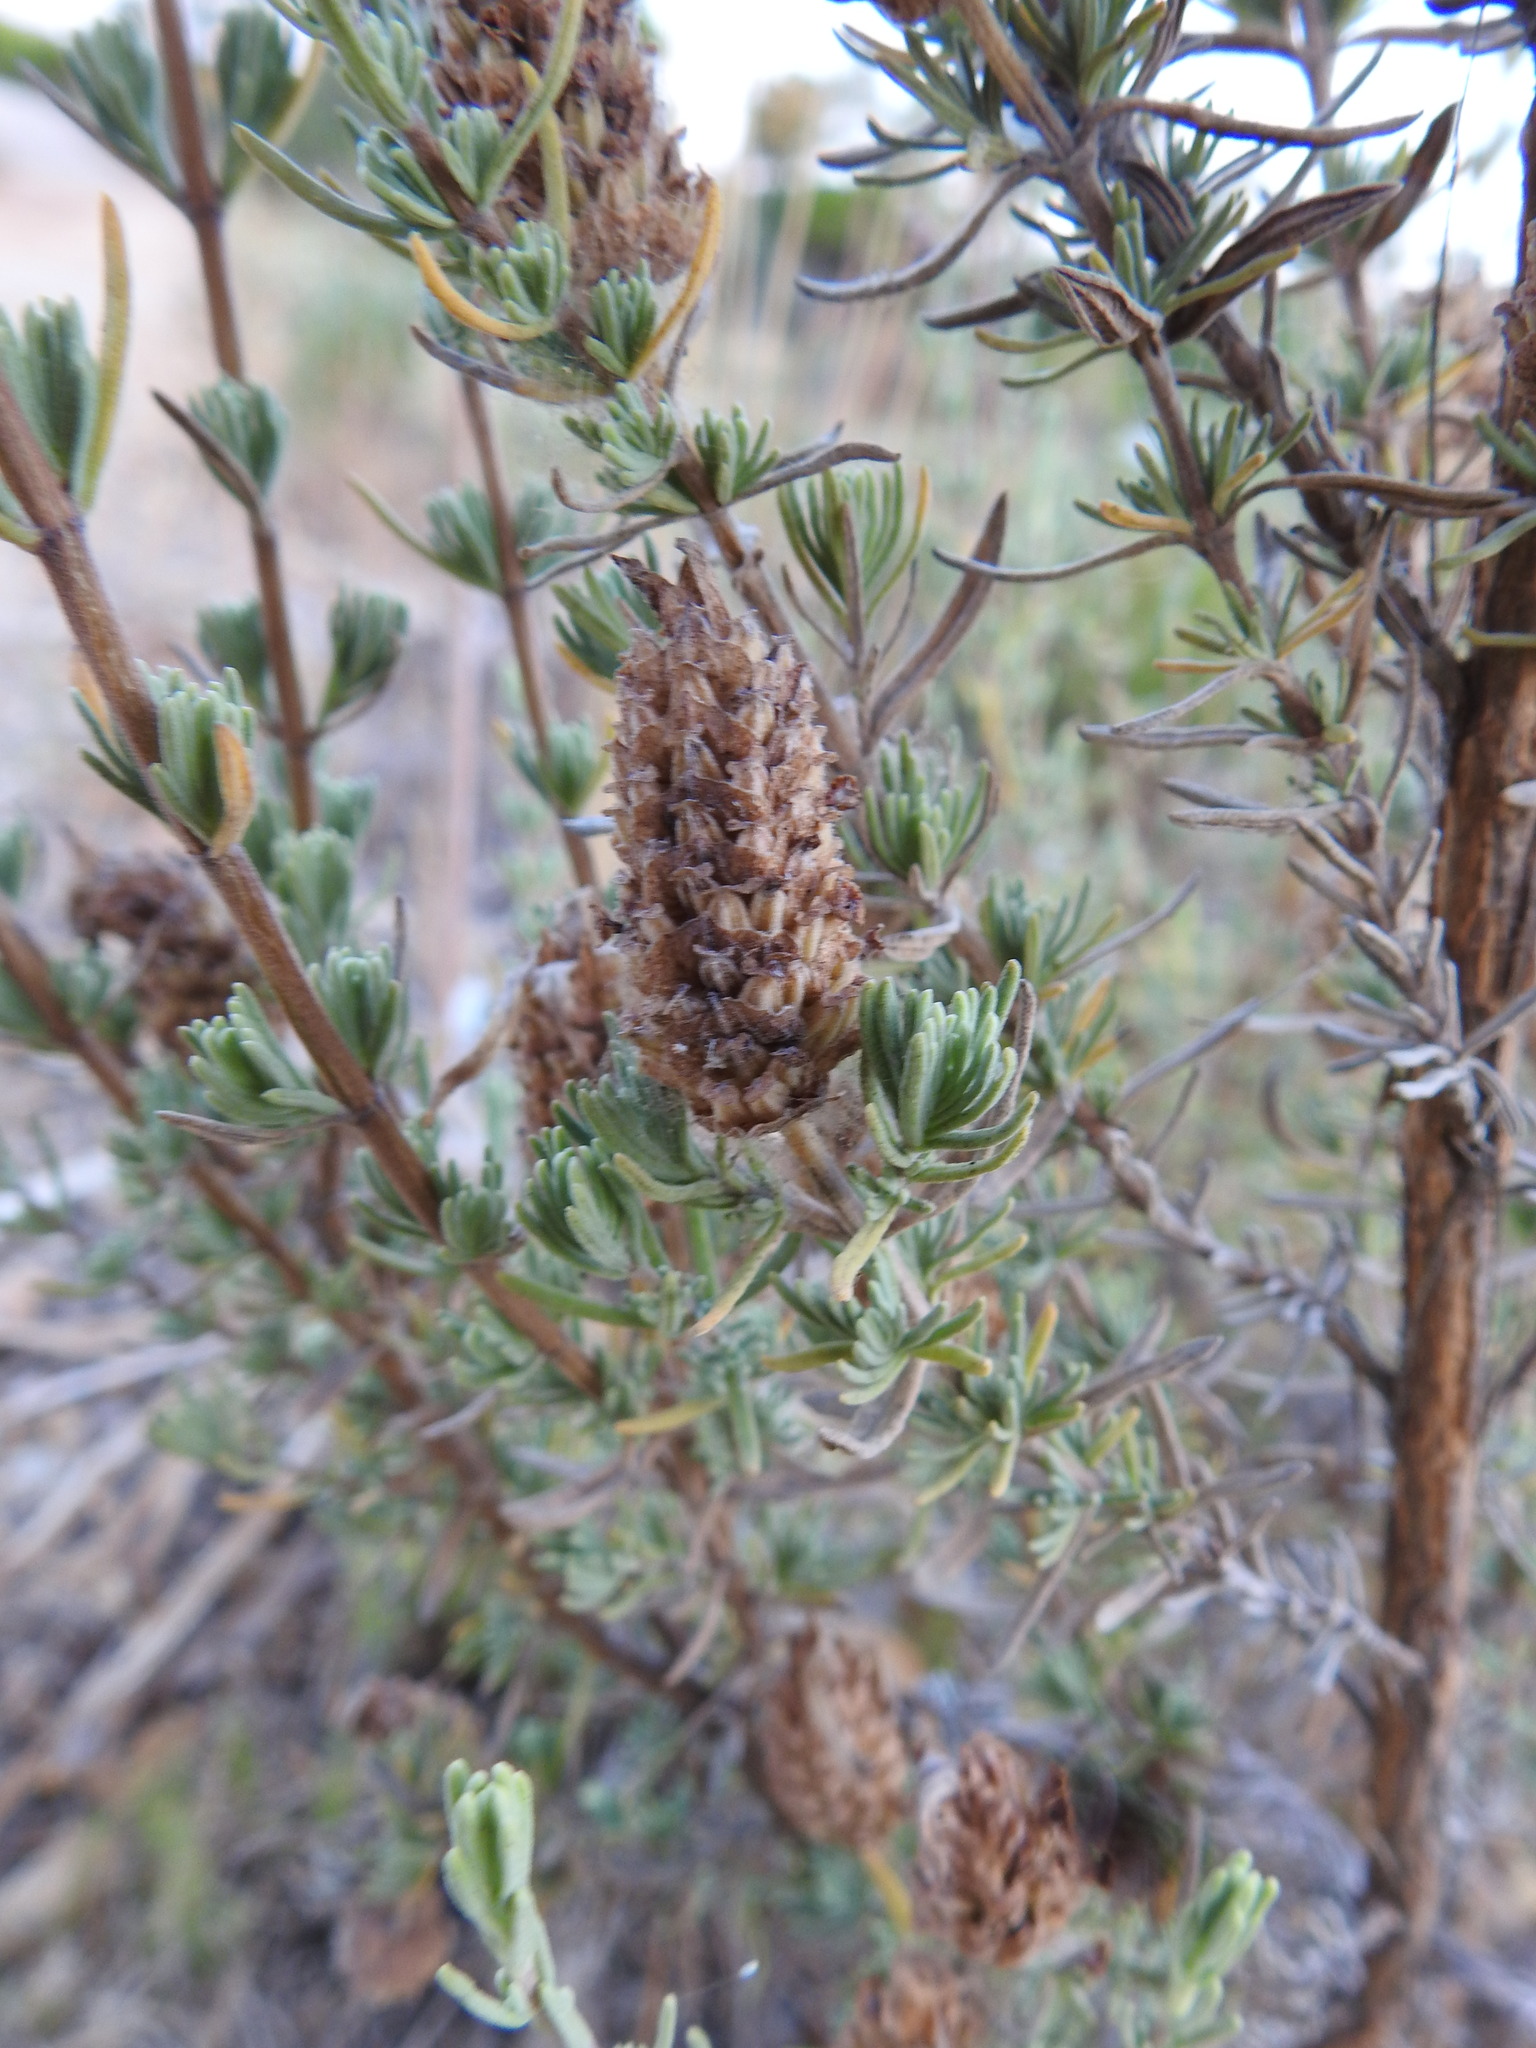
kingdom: Plantae
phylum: Tracheophyta
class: Magnoliopsida
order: Lamiales
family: Lamiaceae
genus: Lavandula
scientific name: Lavandula stoechas
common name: French lavender
